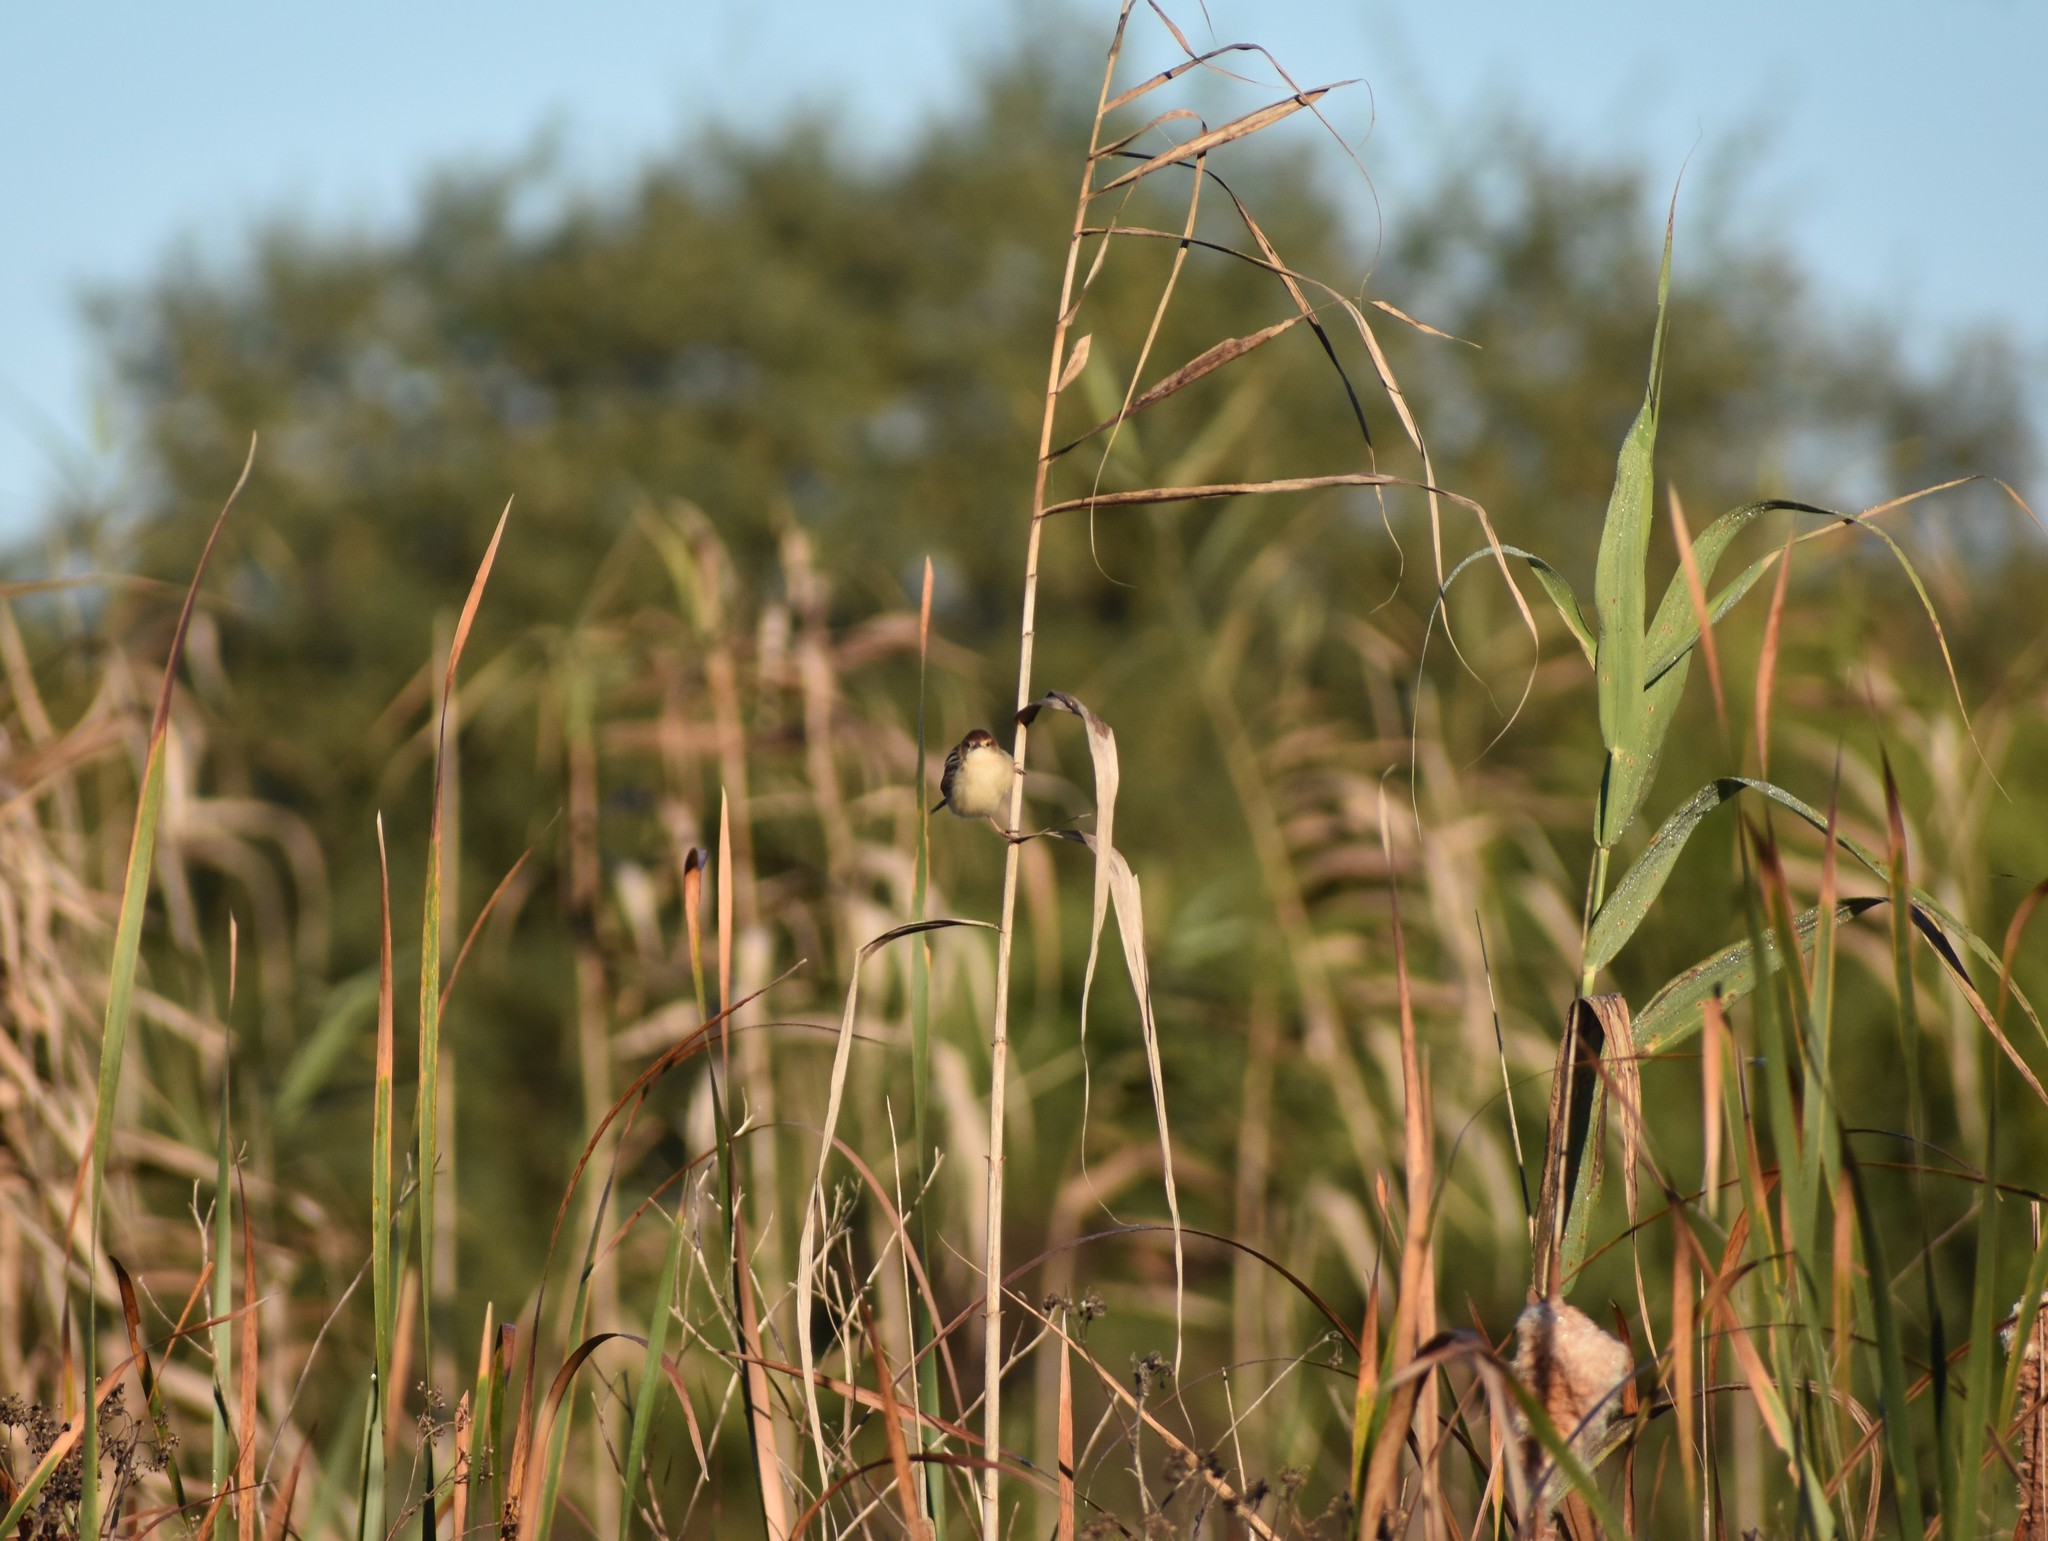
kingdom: Animalia
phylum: Chordata
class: Aves
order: Passeriformes
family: Cisticolidae
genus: Cisticola
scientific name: Cisticola tinniens
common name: Levaillant's cisticola
